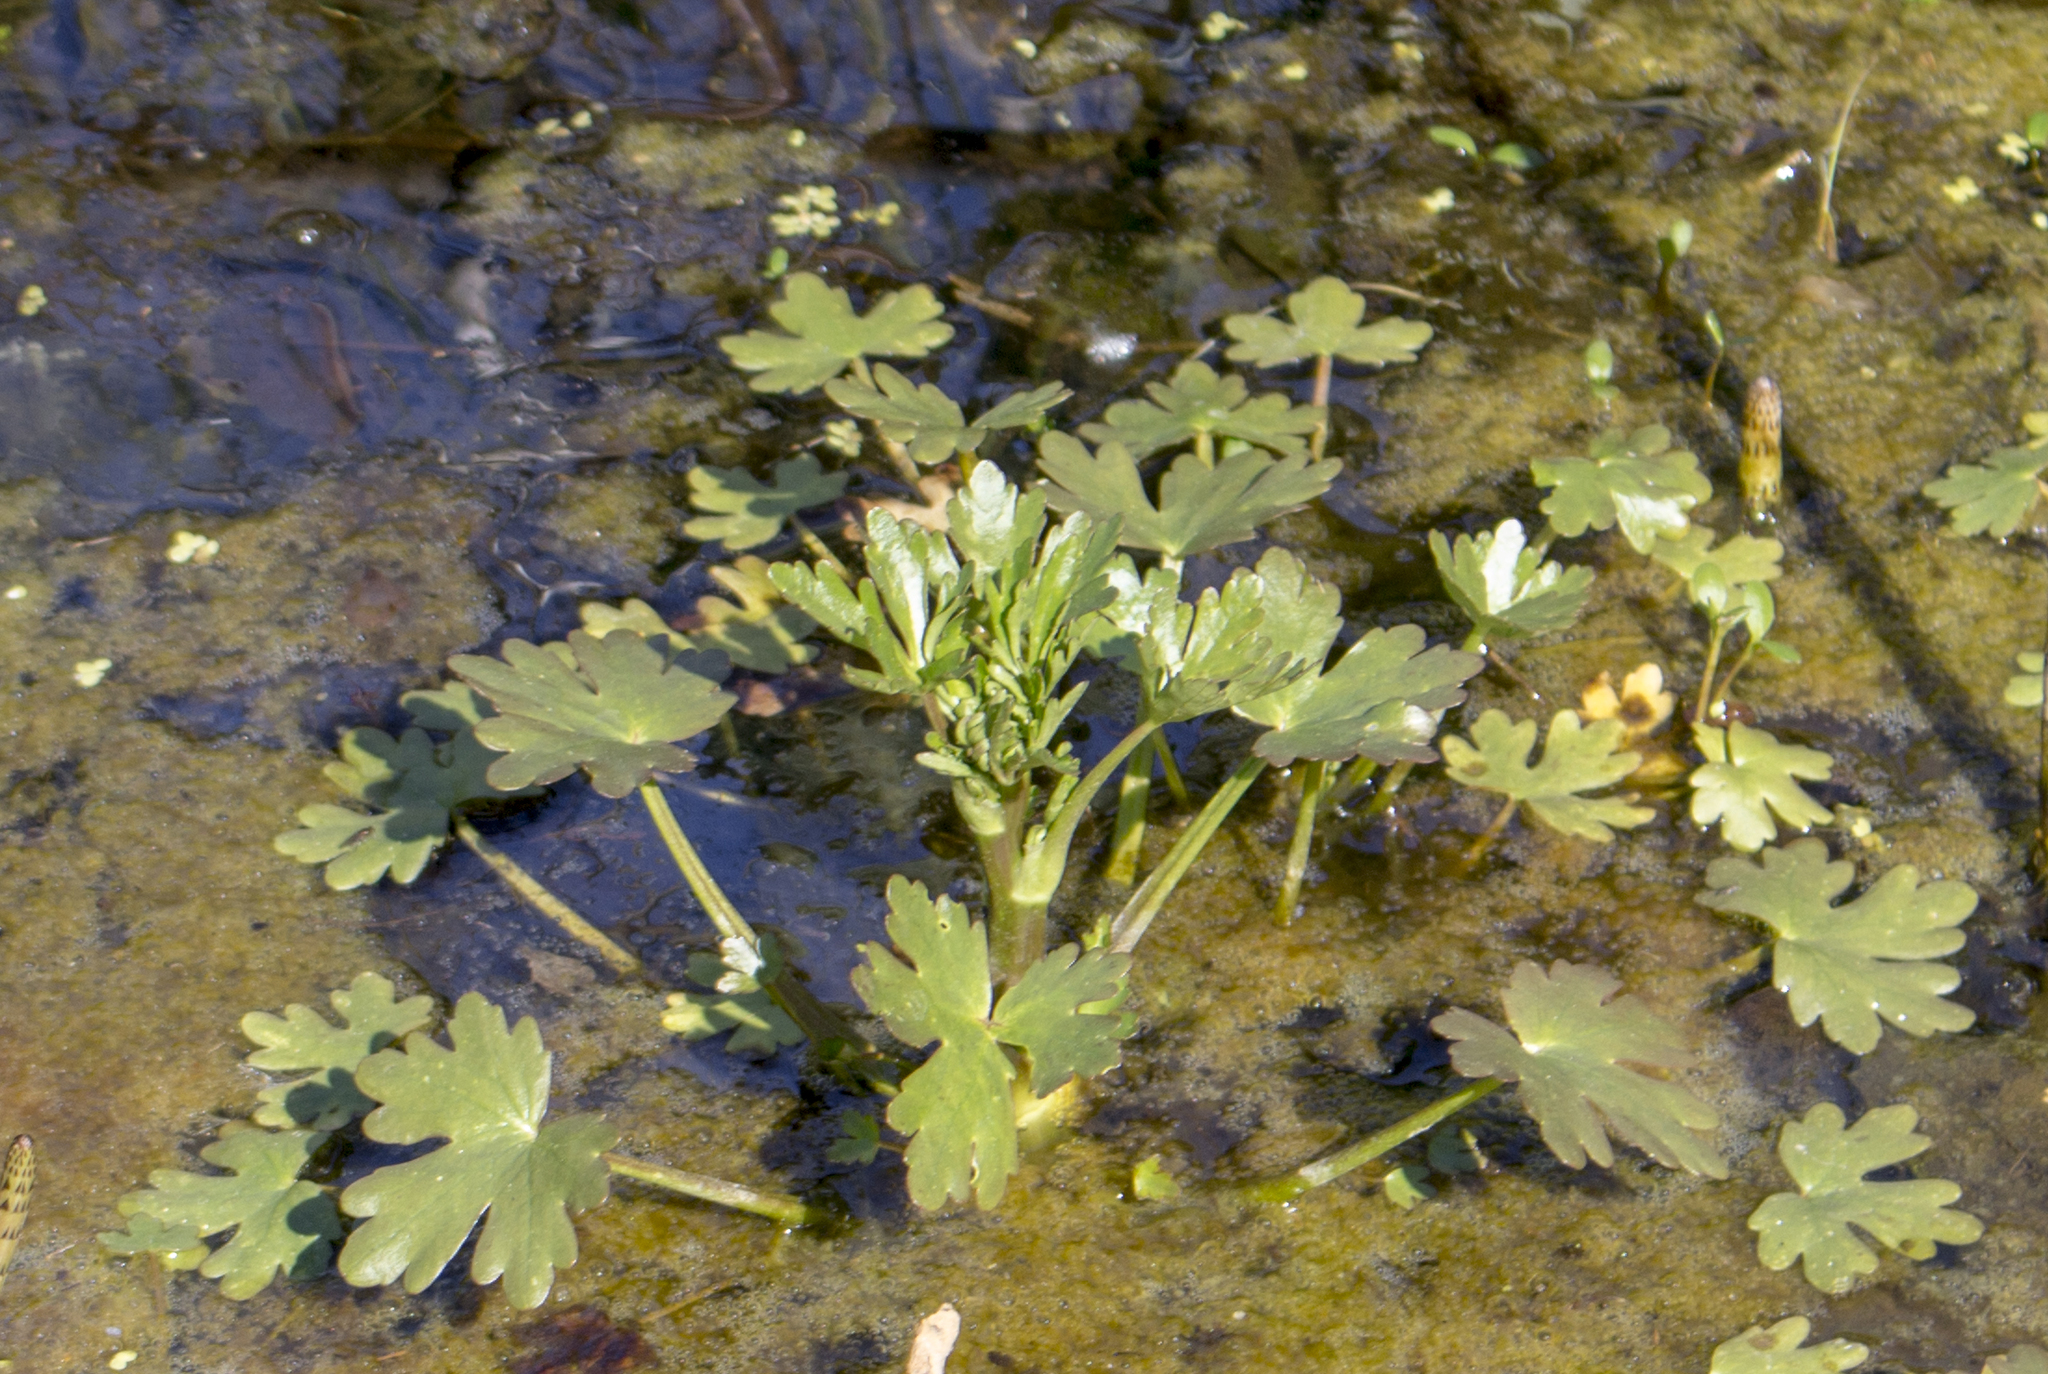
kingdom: Plantae
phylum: Tracheophyta
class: Magnoliopsida
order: Ranunculales
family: Ranunculaceae
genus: Ranunculus
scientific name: Ranunculus sceleratus
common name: Celery-leaved buttercup
